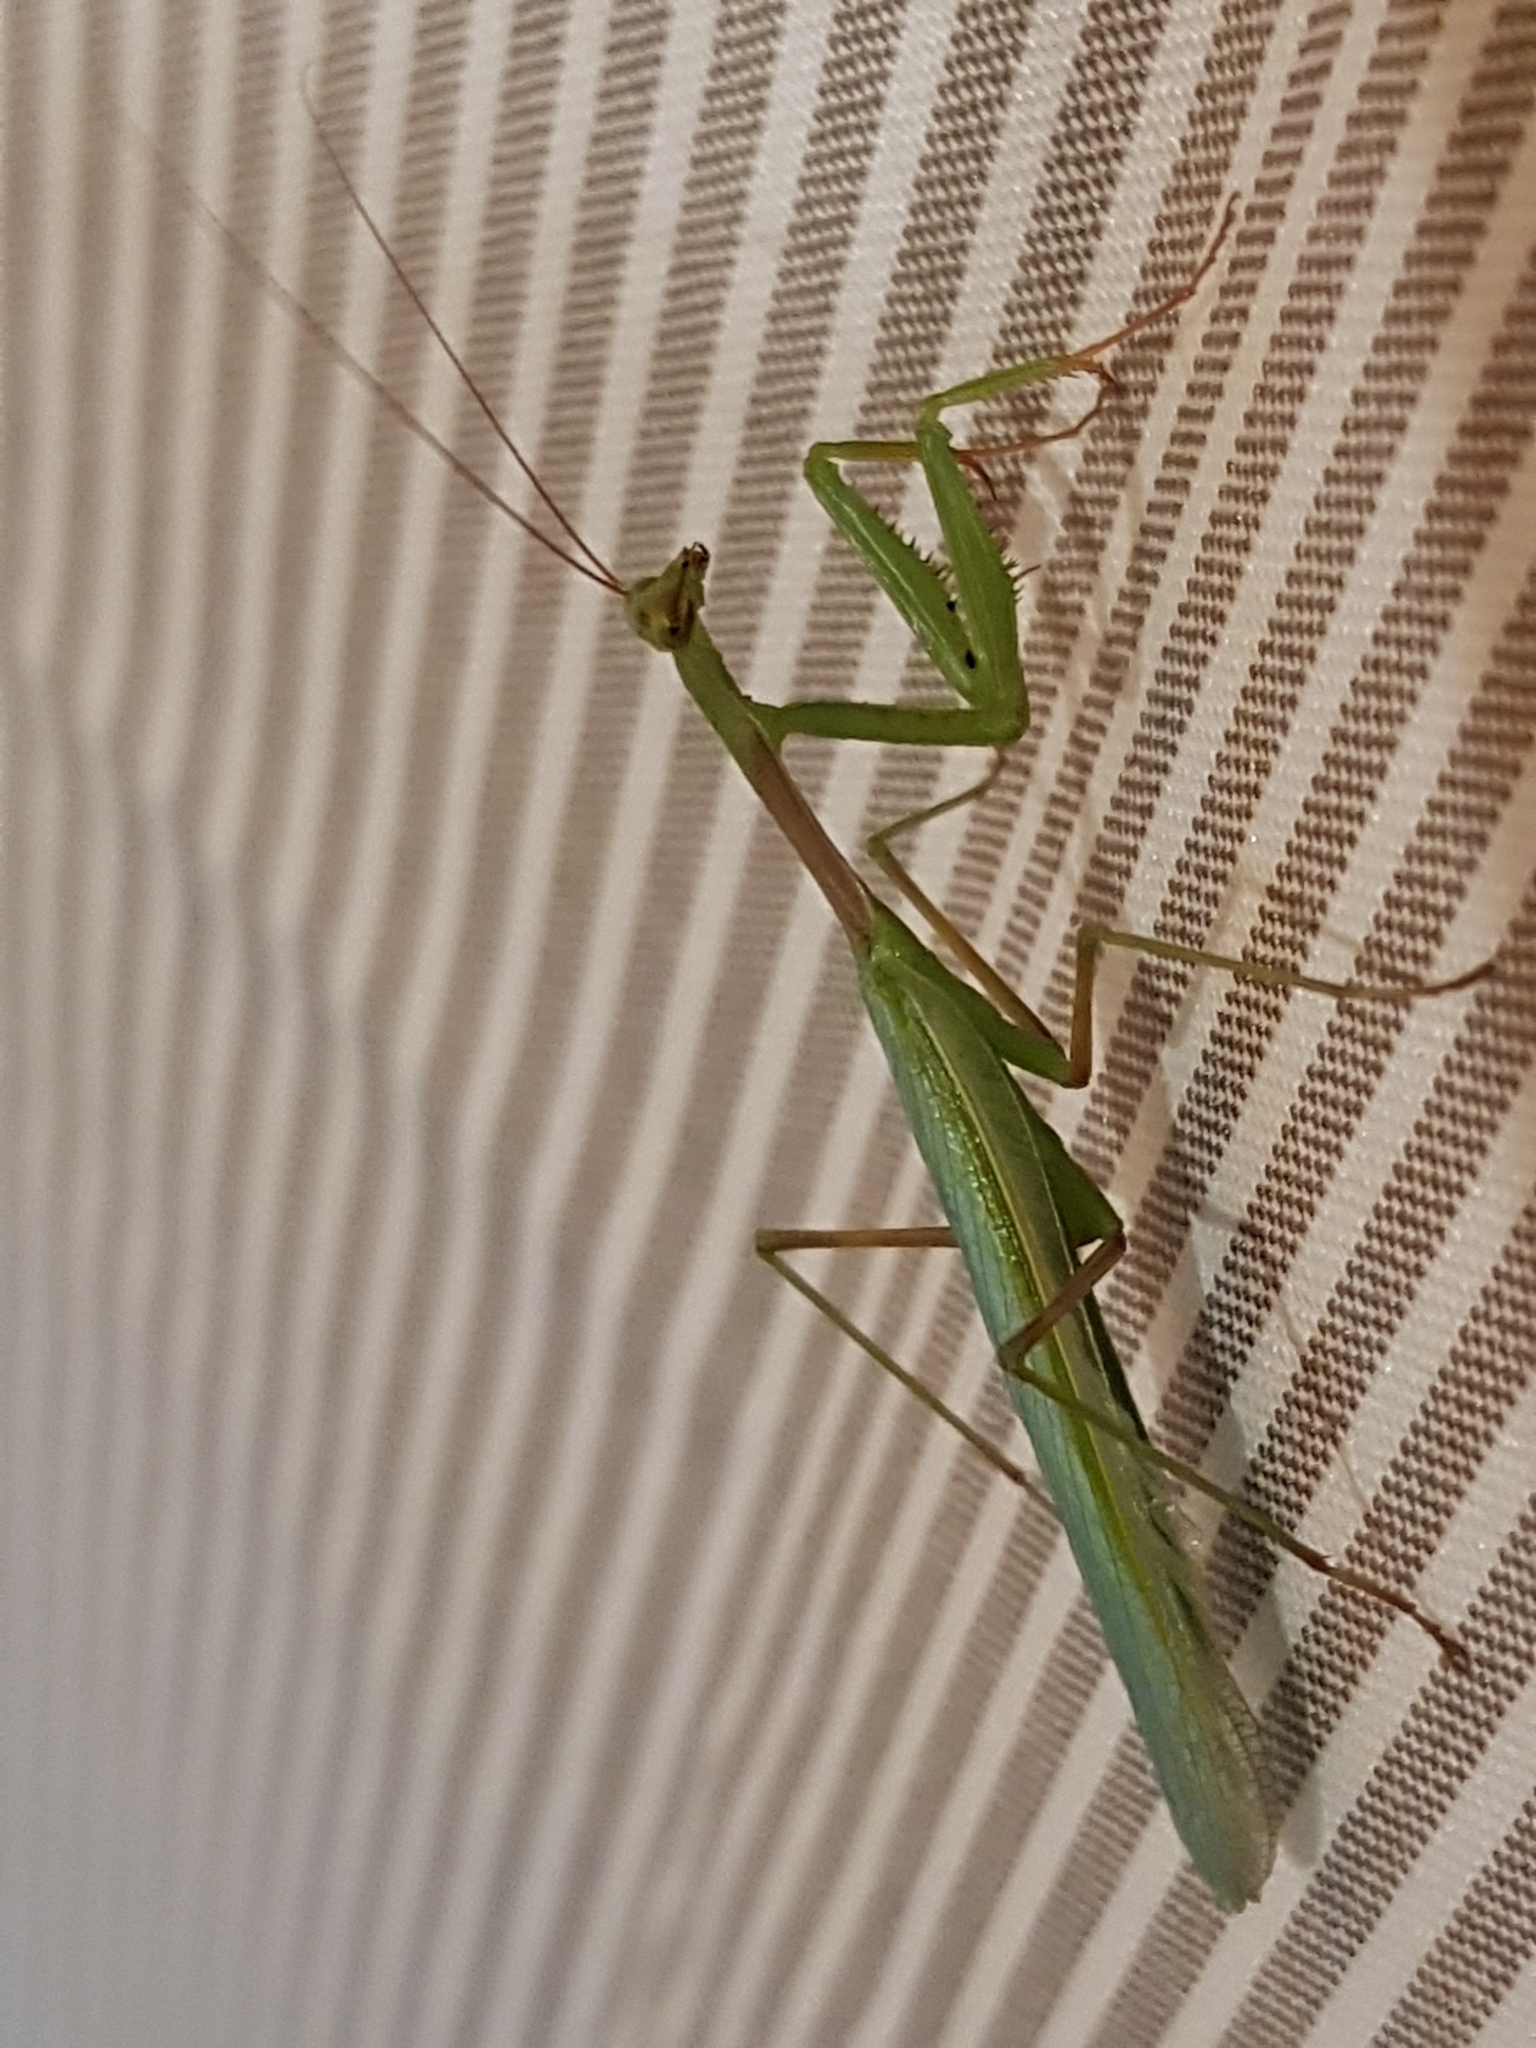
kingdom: Animalia
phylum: Arthropoda
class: Insecta
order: Mantodea
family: Miomantidae
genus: Miomantis
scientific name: Miomantis caffra
